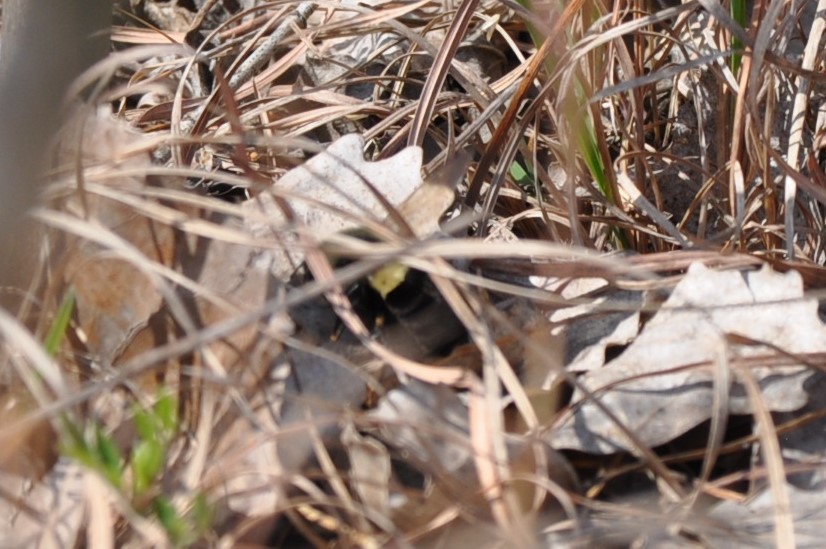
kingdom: Animalia
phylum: Arthropoda
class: Insecta
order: Hymenoptera
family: Apidae
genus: Bombus
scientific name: Bombus impatiens
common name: Common eastern bumble bee
